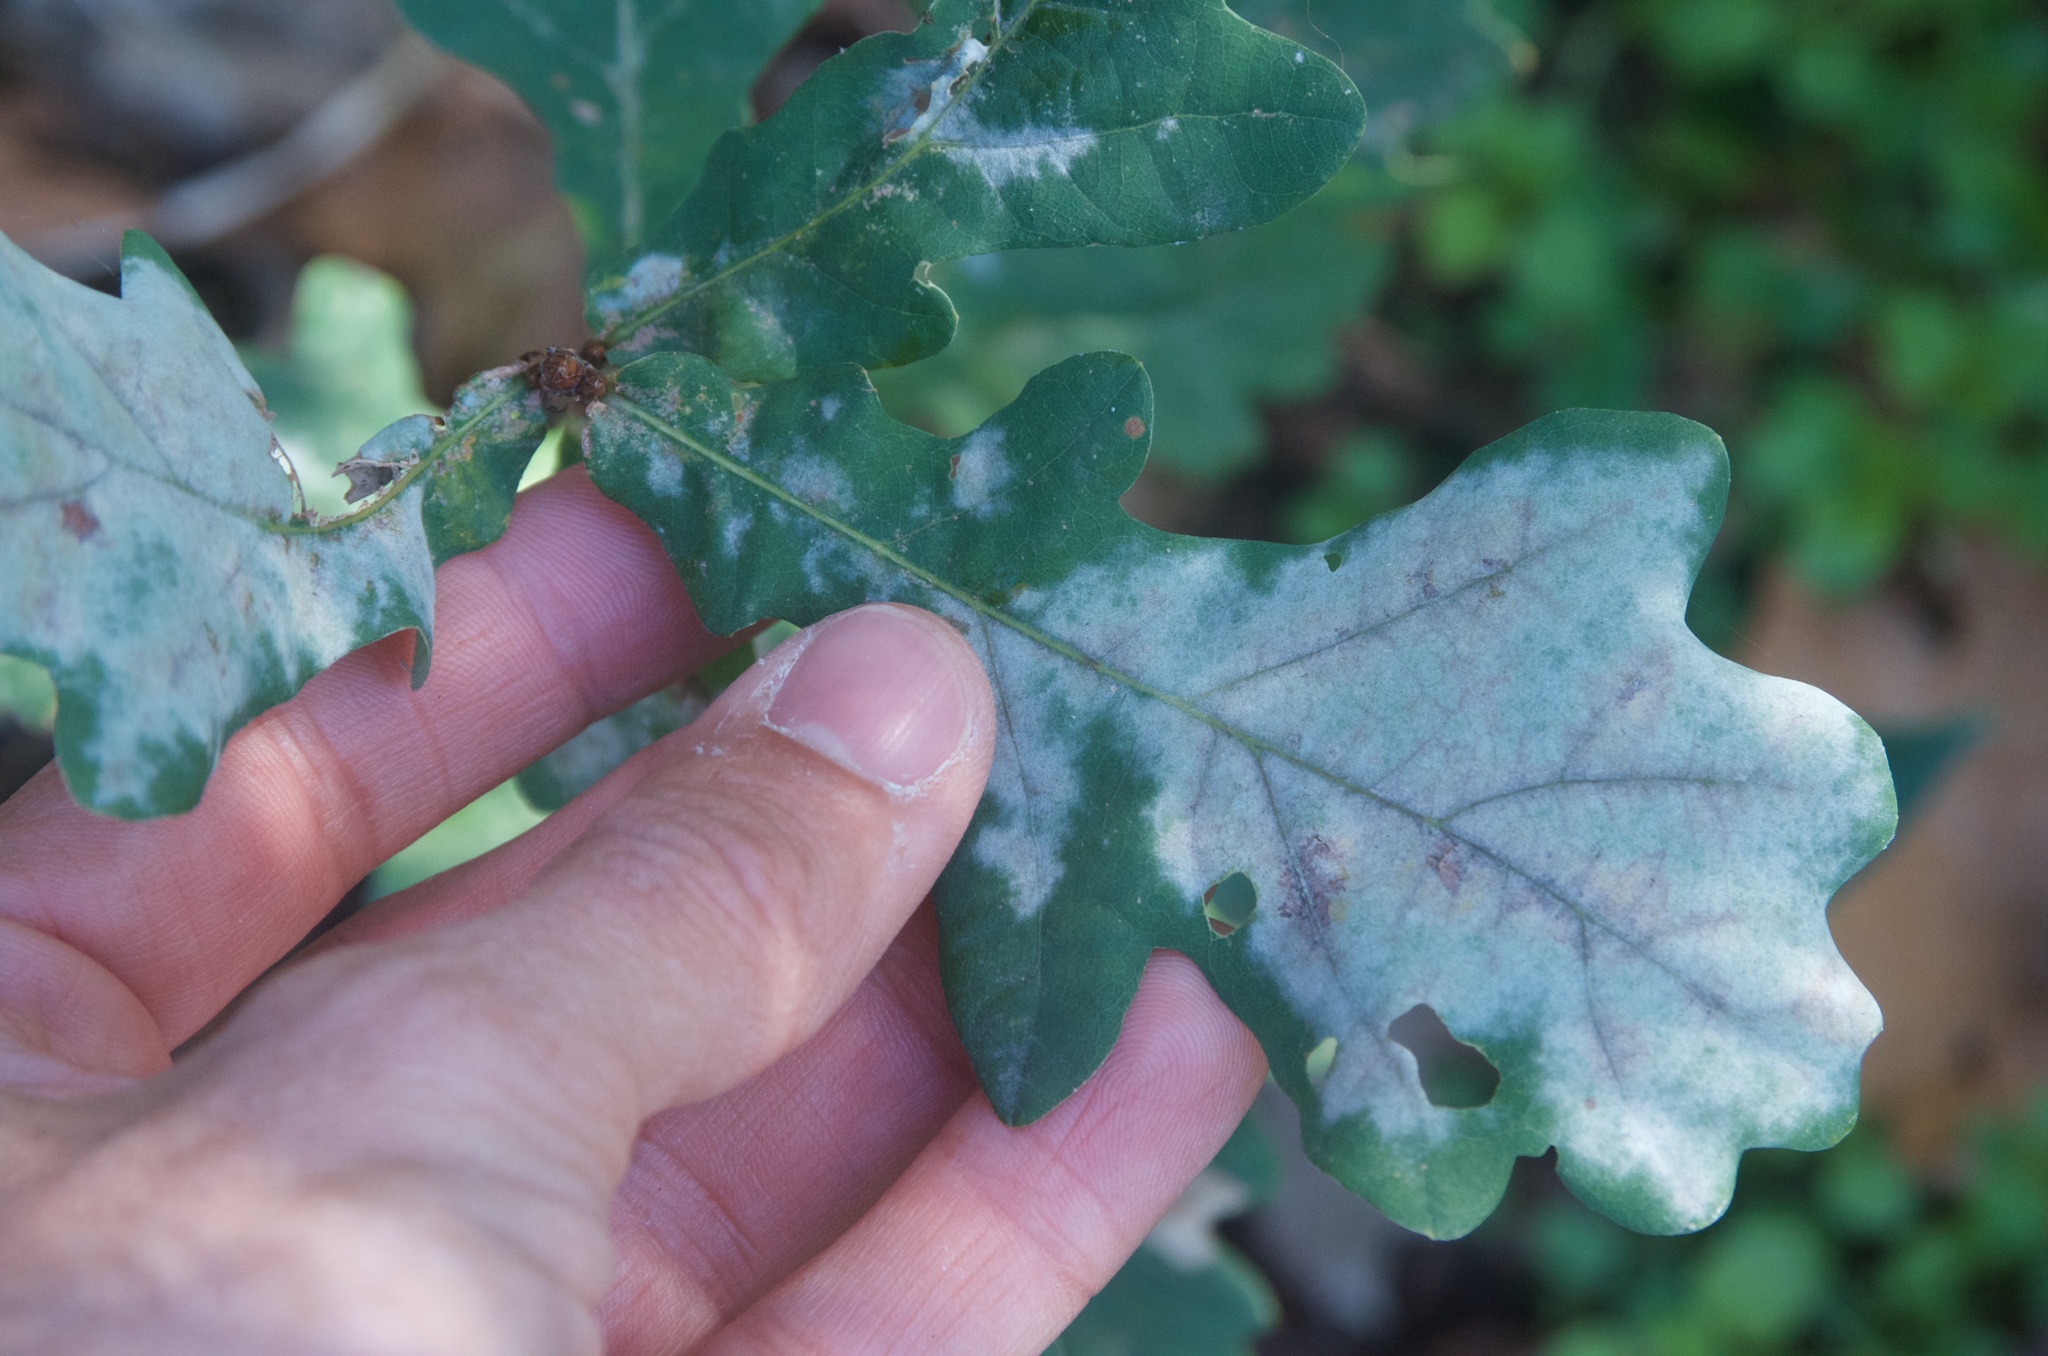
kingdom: Fungi
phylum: Ascomycota
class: Leotiomycetes
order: Helotiales
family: Erysiphaceae
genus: Erysiphe
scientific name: Erysiphe alphitoides
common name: Oak mildew
